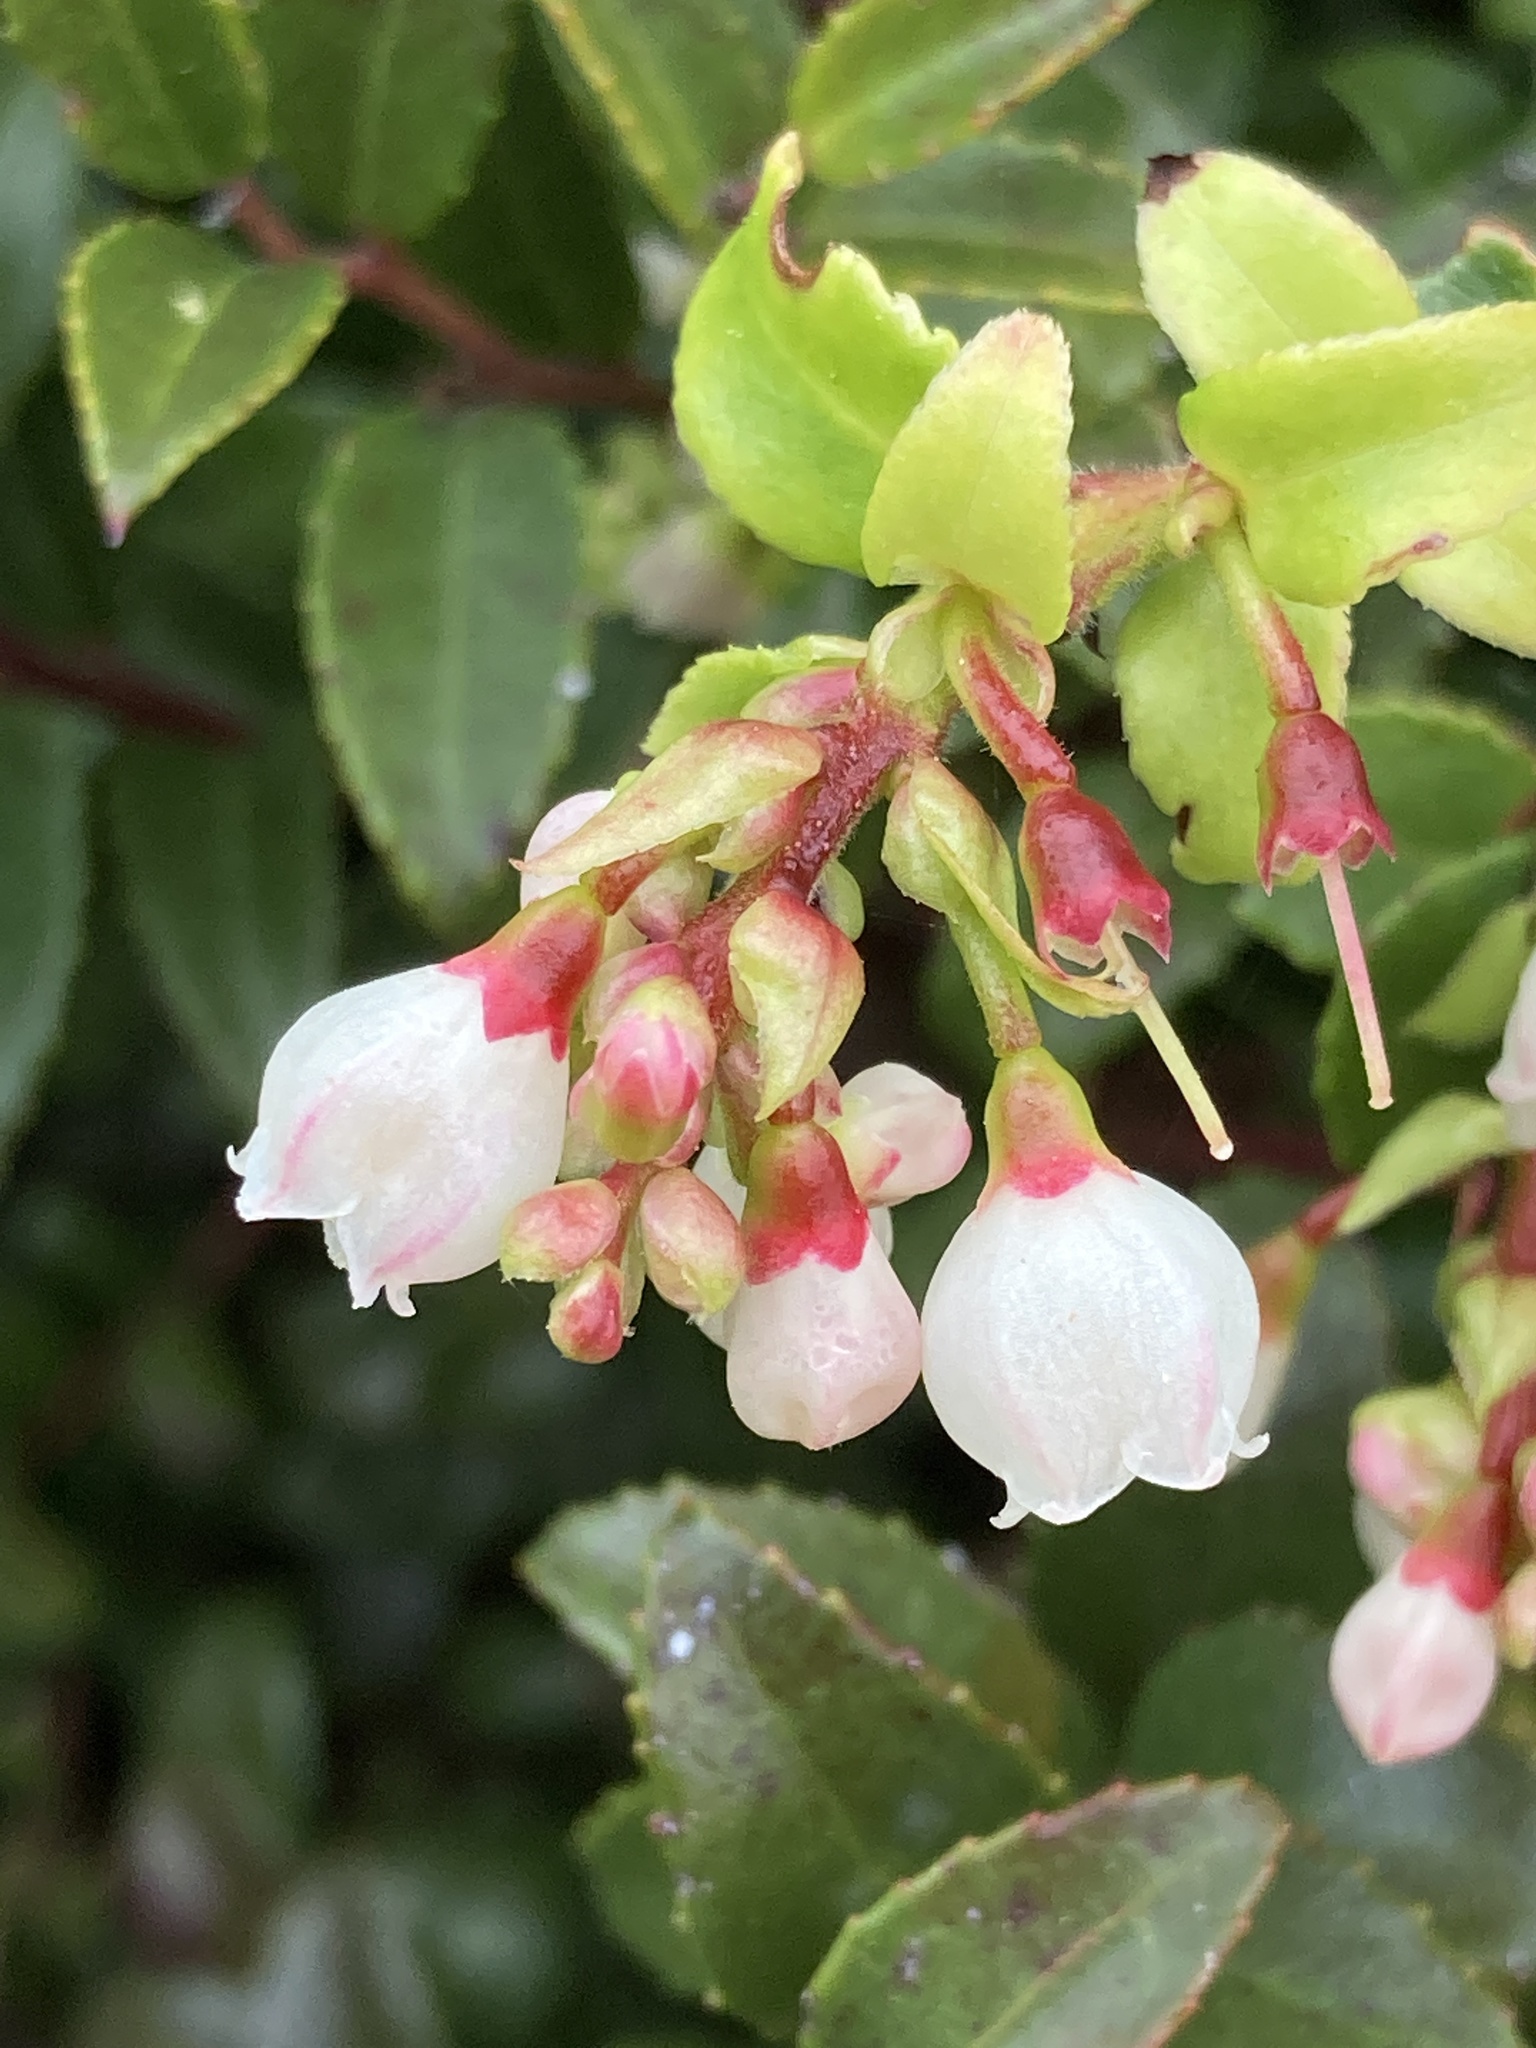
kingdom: Plantae
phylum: Tracheophyta
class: Magnoliopsida
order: Ericales
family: Ericaceae
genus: Vaccinium
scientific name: Vaccinium ovatum
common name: California-huckleberry
